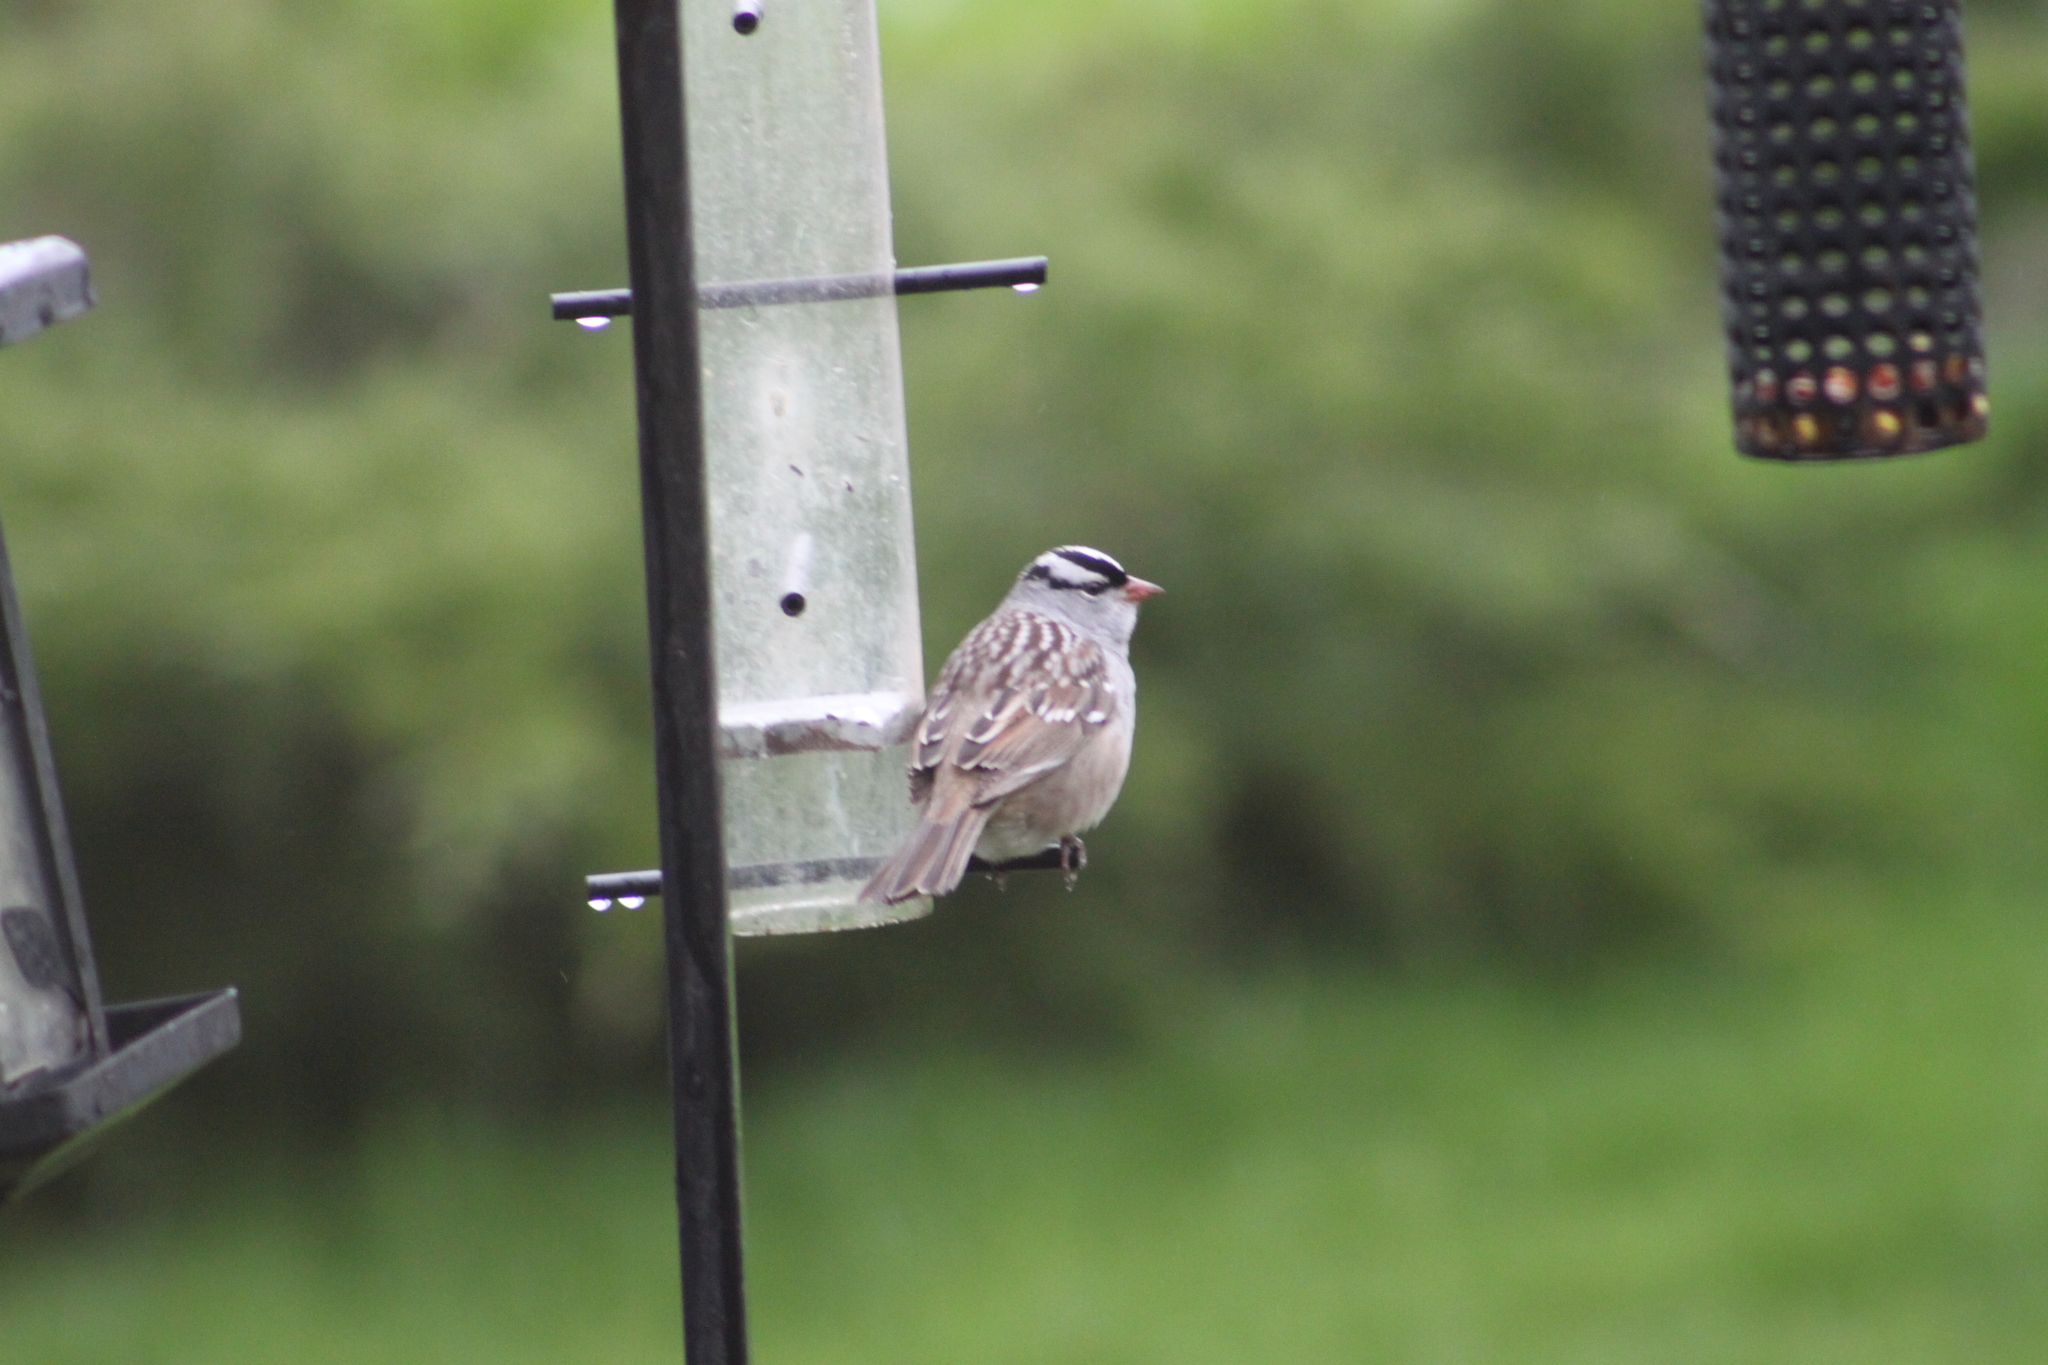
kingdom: Animalia
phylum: Chordata
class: Aves
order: Passeriformes
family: Passerellidae
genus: Zonotrichia
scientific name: Zonotrichia leucophrys
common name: White-crowned sparrow
